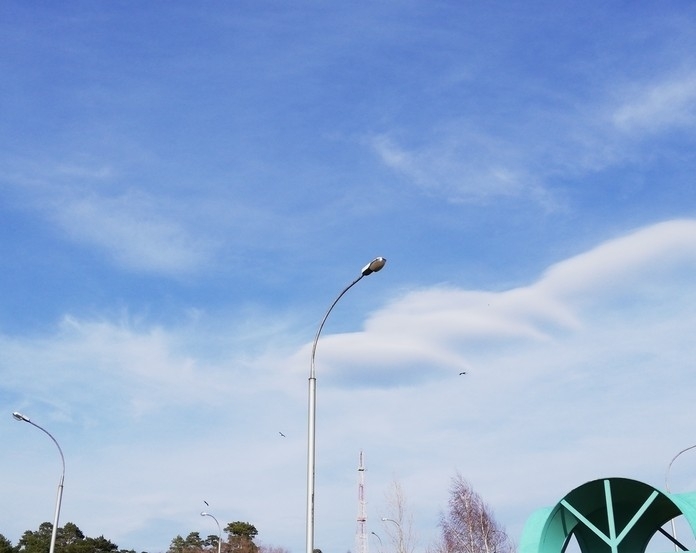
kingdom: Animalia
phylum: Chordata
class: Aves
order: Accipitriformes
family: Accipitridae
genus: Milvus
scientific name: Milvus migrans
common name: Black kite
